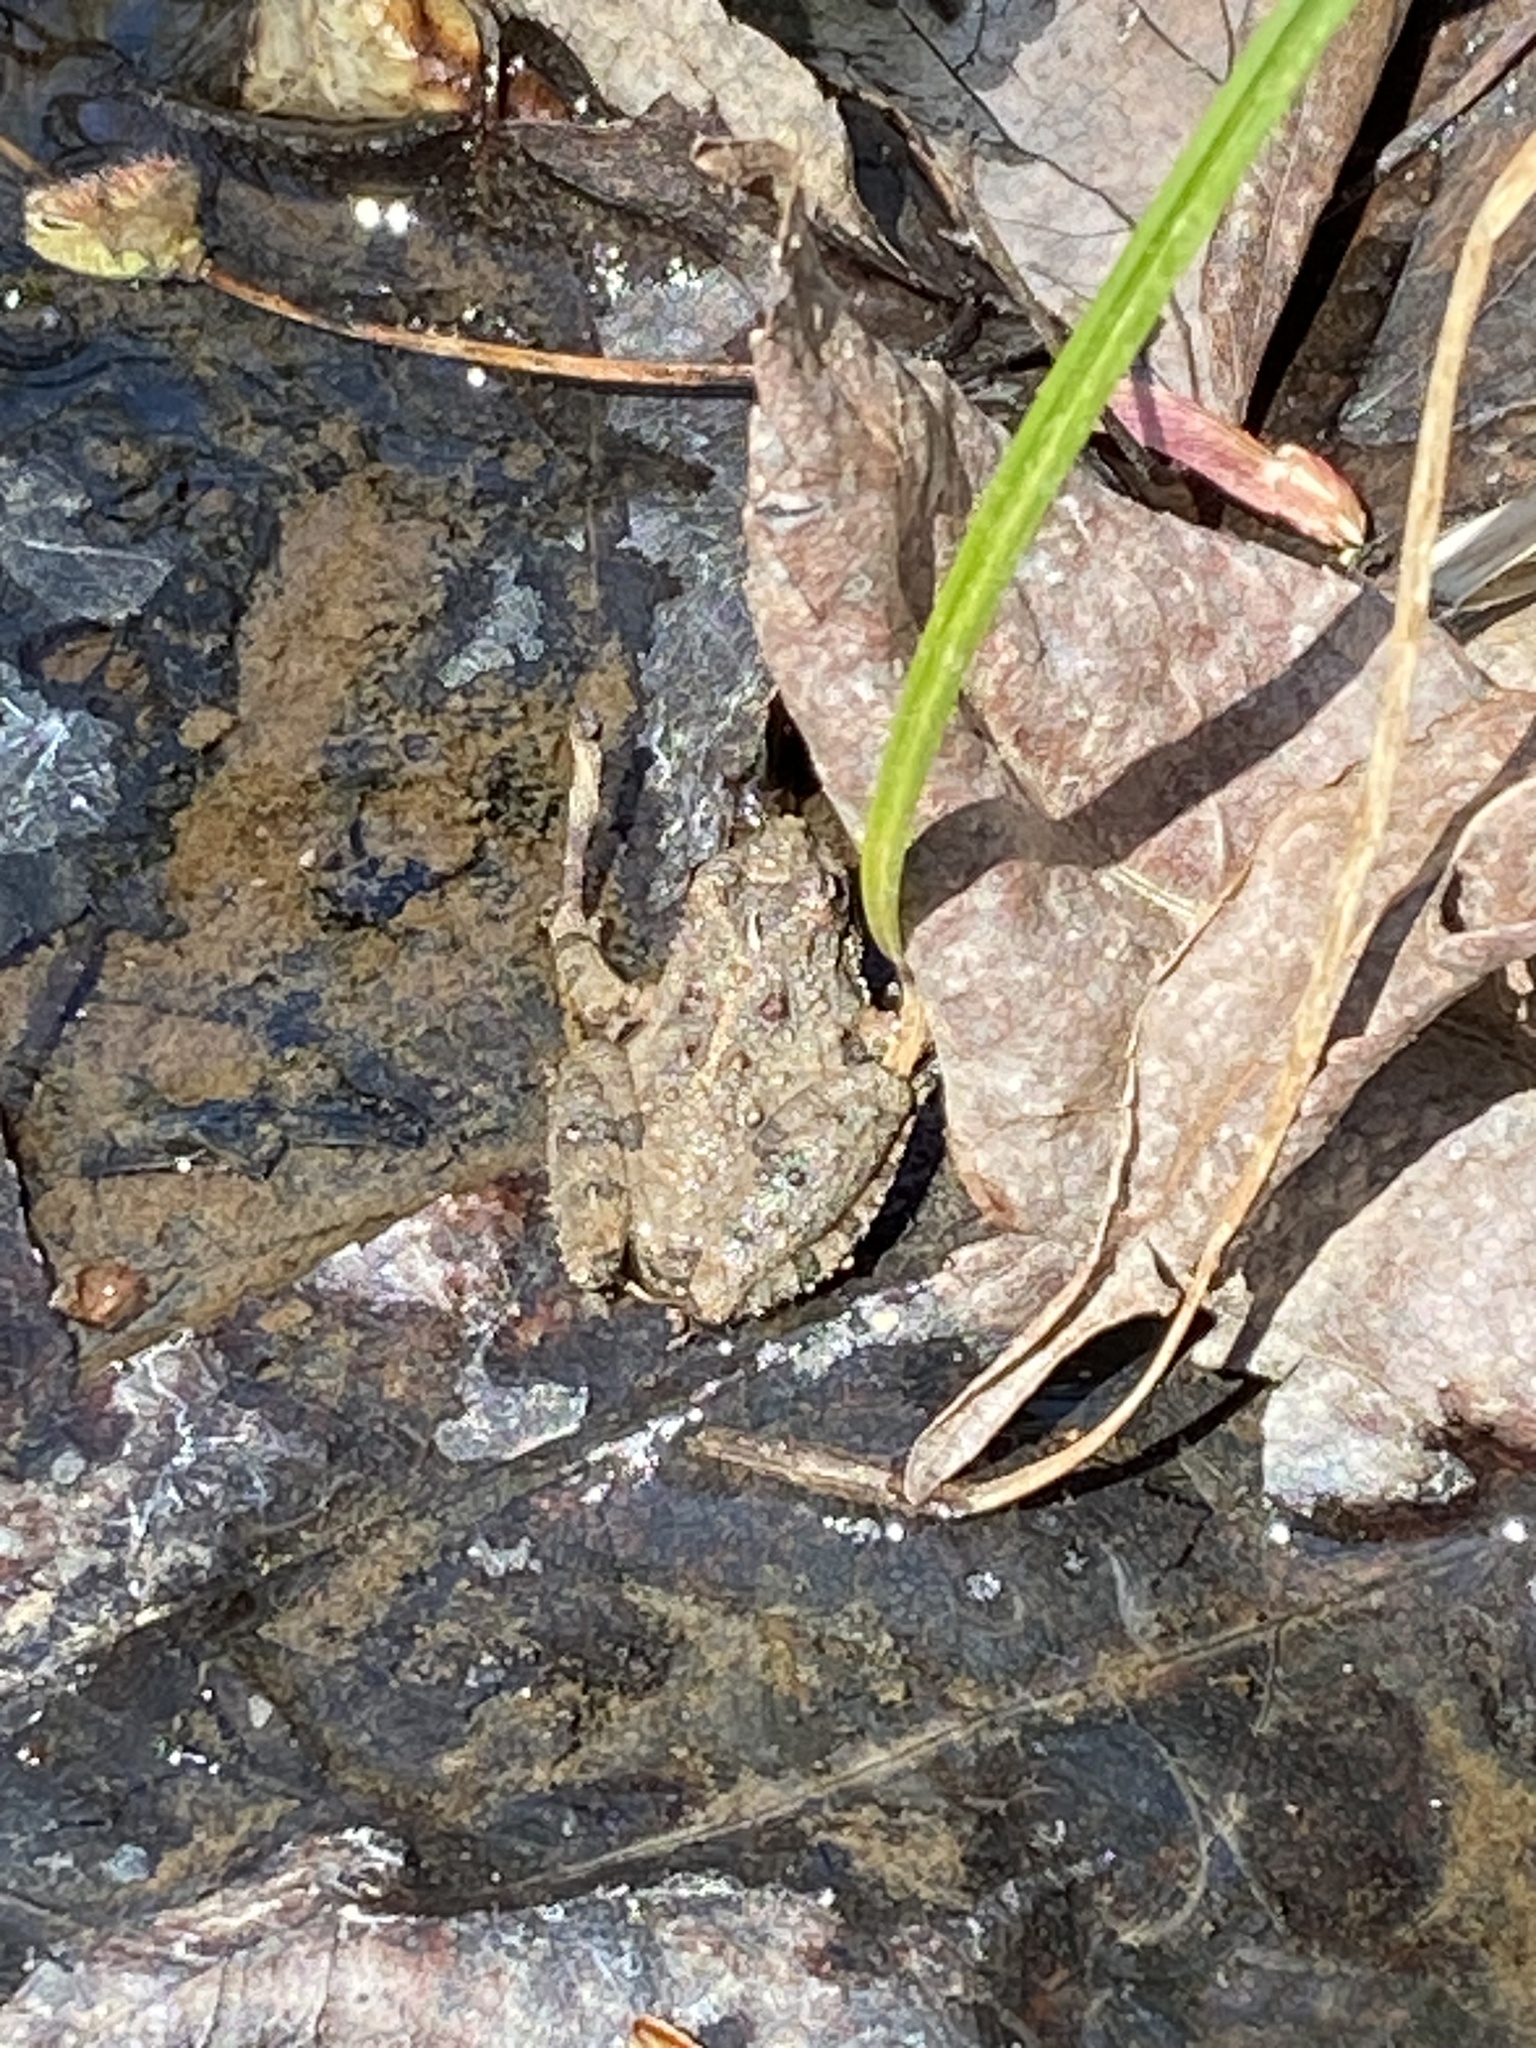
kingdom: Animalia
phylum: Chordata
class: Amphibia
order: Anura
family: Hylidae
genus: Acris
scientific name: Acris crepitans
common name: Northern cricket frog
